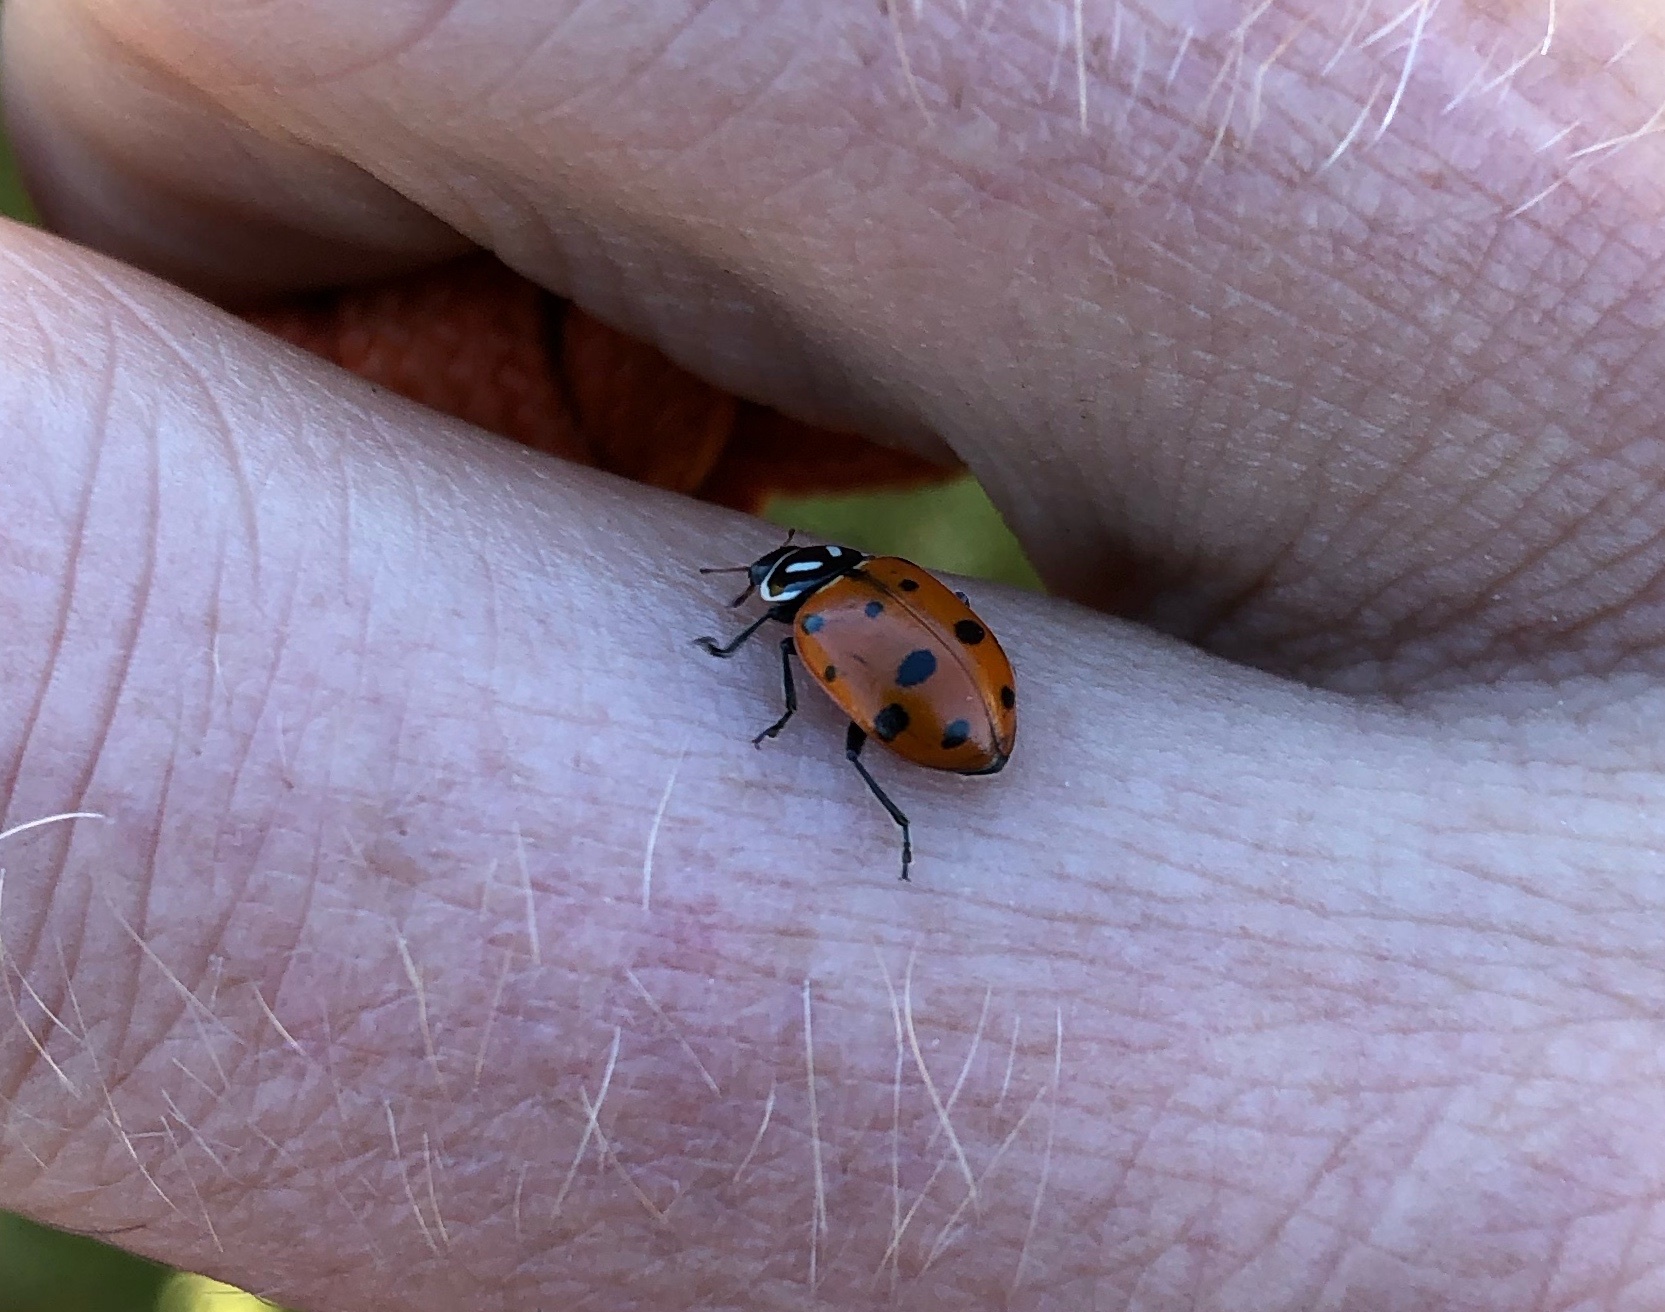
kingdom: Animalia
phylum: Arthropoda
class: Insecta
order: Coleoptera
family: Coccinellidae
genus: Hippodamia
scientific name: Hippodamia convergens
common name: Convergent lady beetle
